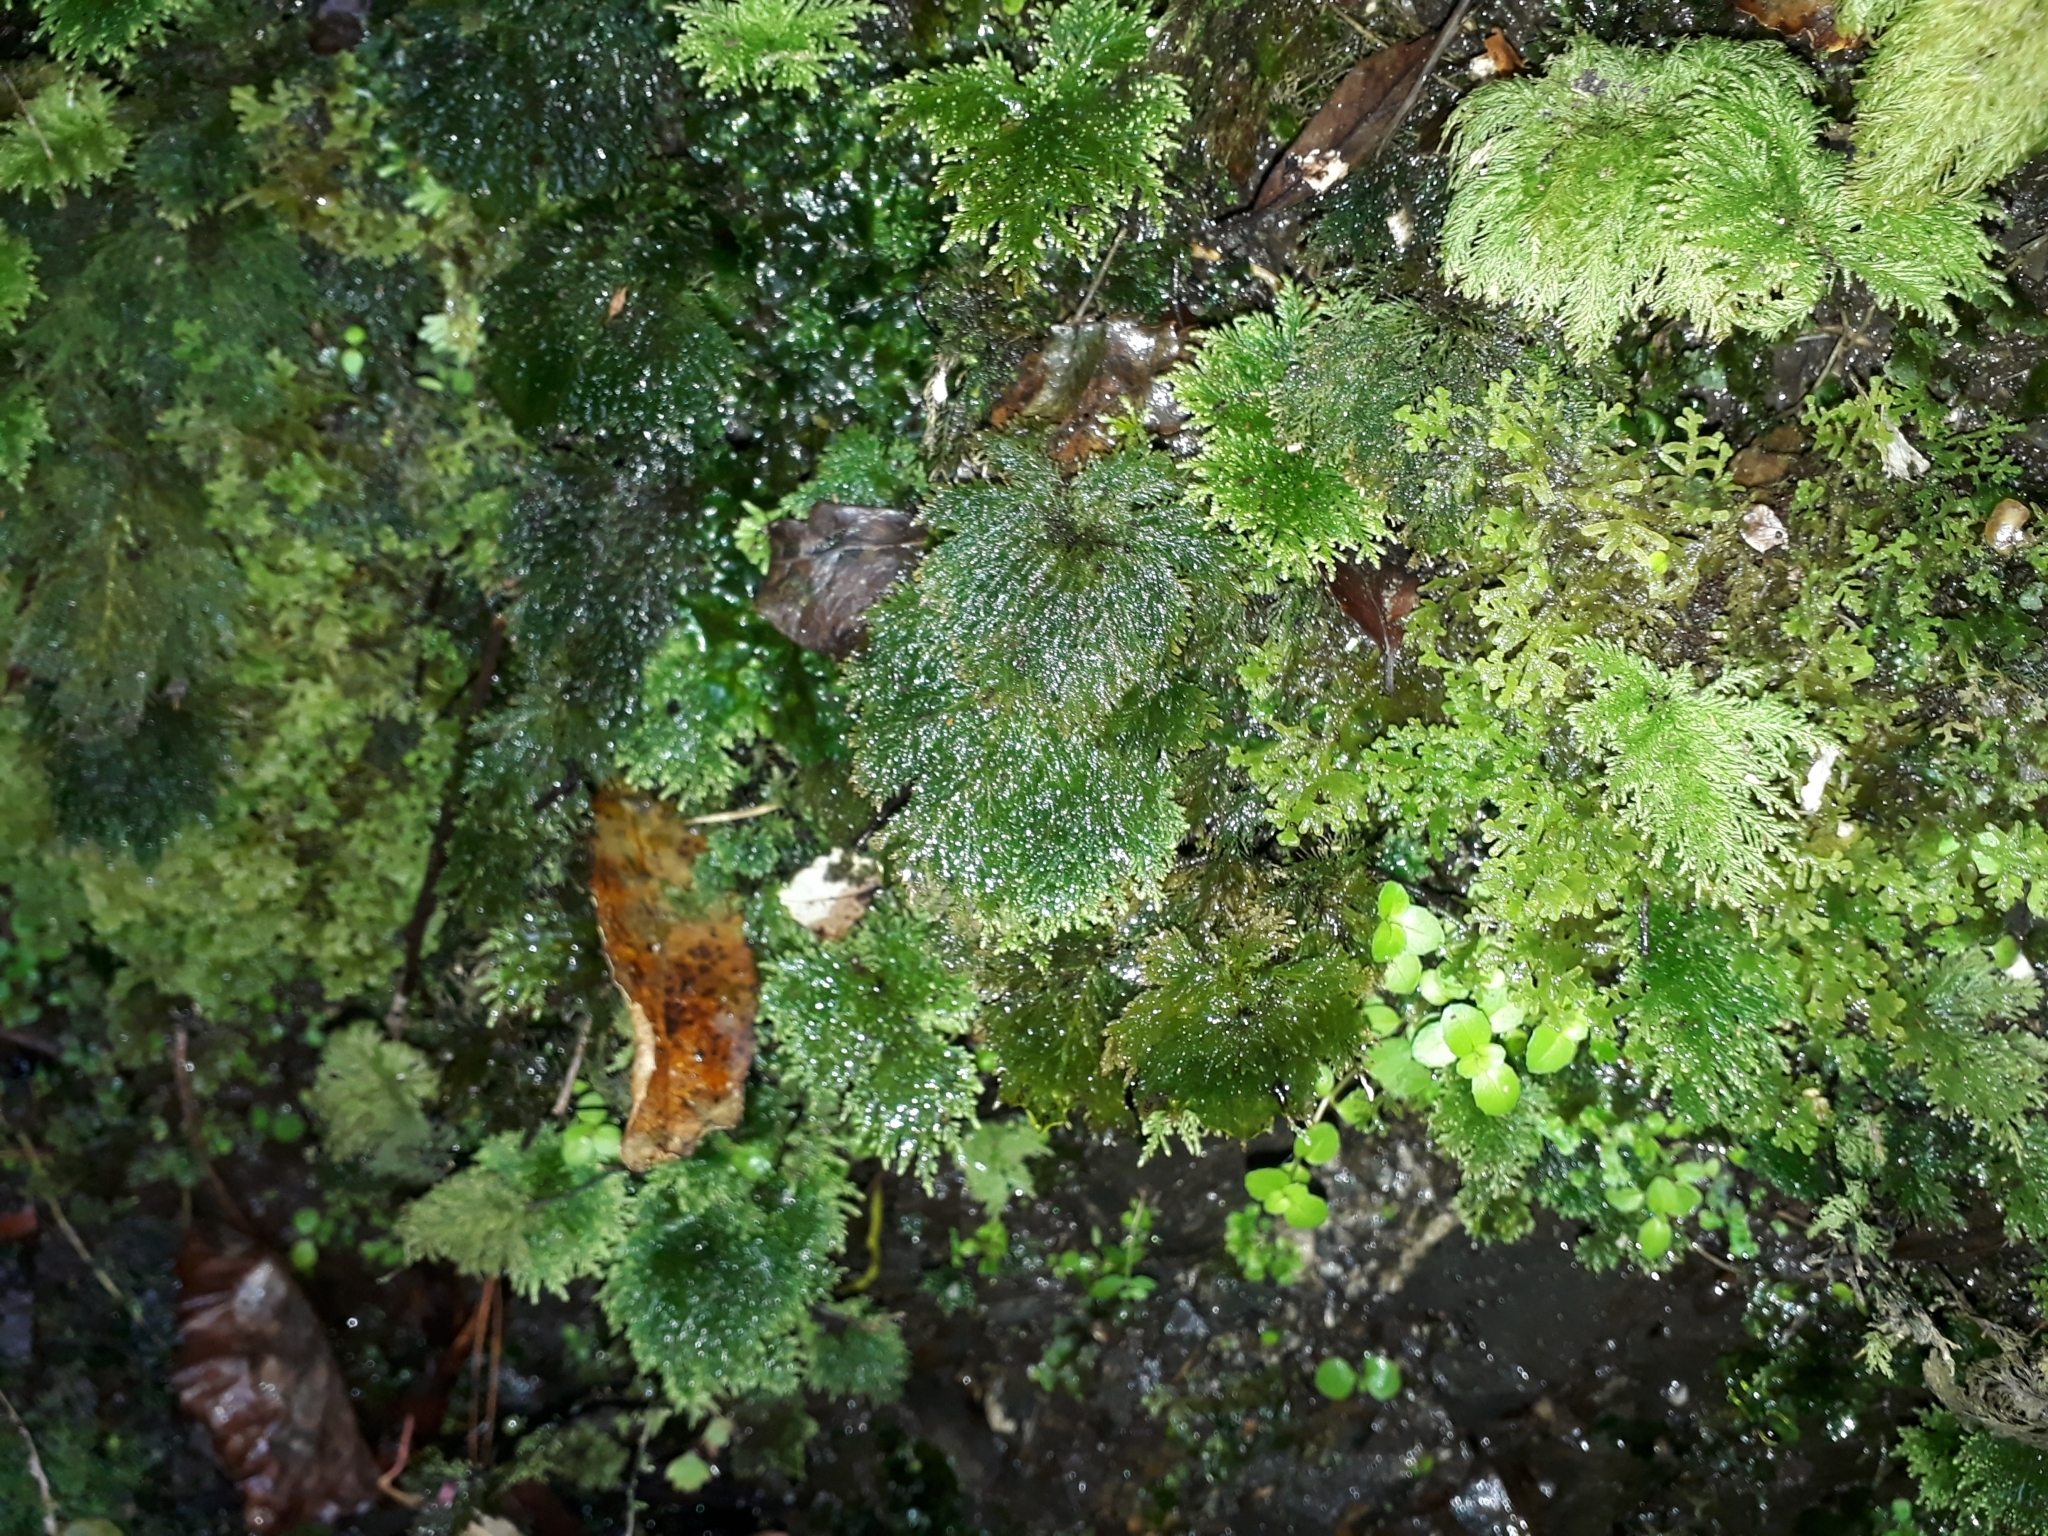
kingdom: Plantae
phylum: Bryophyta
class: Bryopsida
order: Hypopterygiales
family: Hypopterygiaceae
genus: Dendrohypopterygium
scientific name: Dendrohypopterygium filiculiforme
